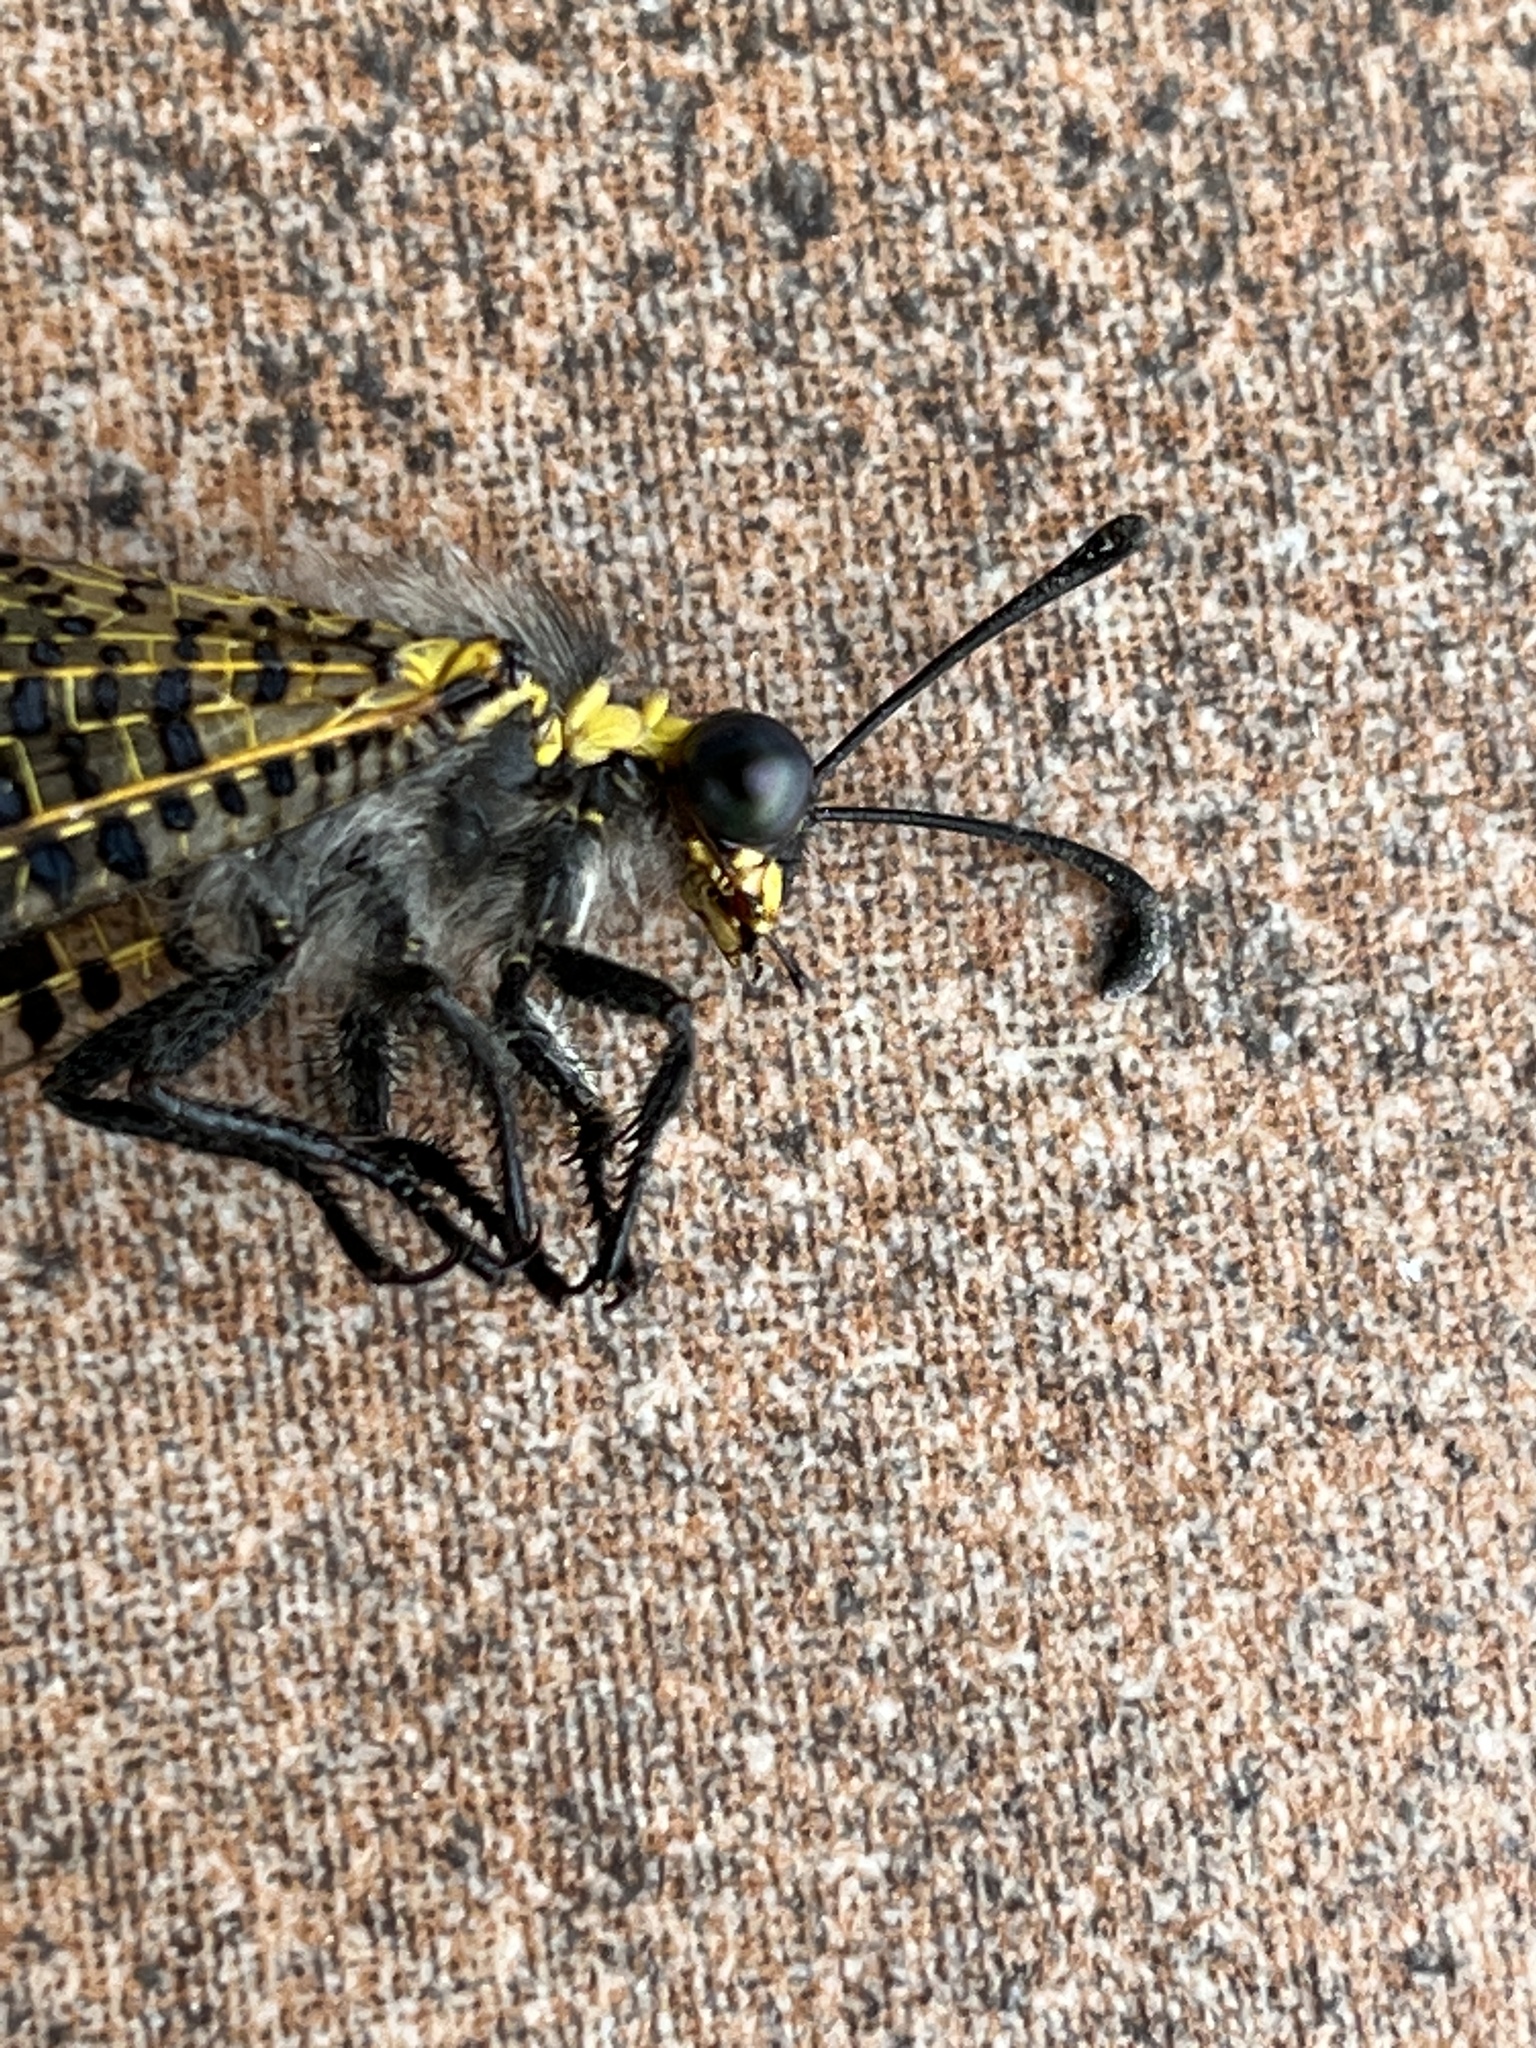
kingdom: Animalia
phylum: Arthropoda
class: Insecta
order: Neuroptera
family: Myrmeleontidae
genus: Palpares
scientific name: Palpares speciosus
